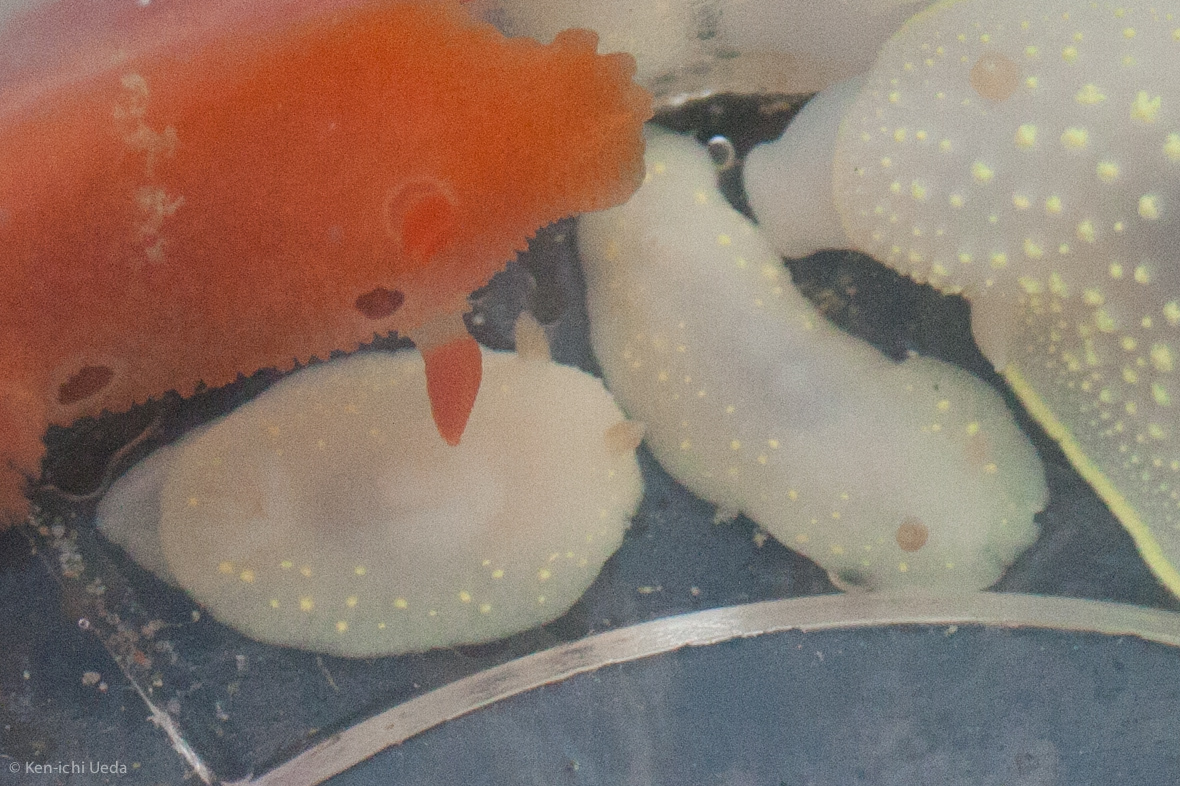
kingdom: Animalia
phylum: Mollusca
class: Gastropoda
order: Nudibranchia
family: Cadlinidae
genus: Cadlina
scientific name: Cadlina modesta
